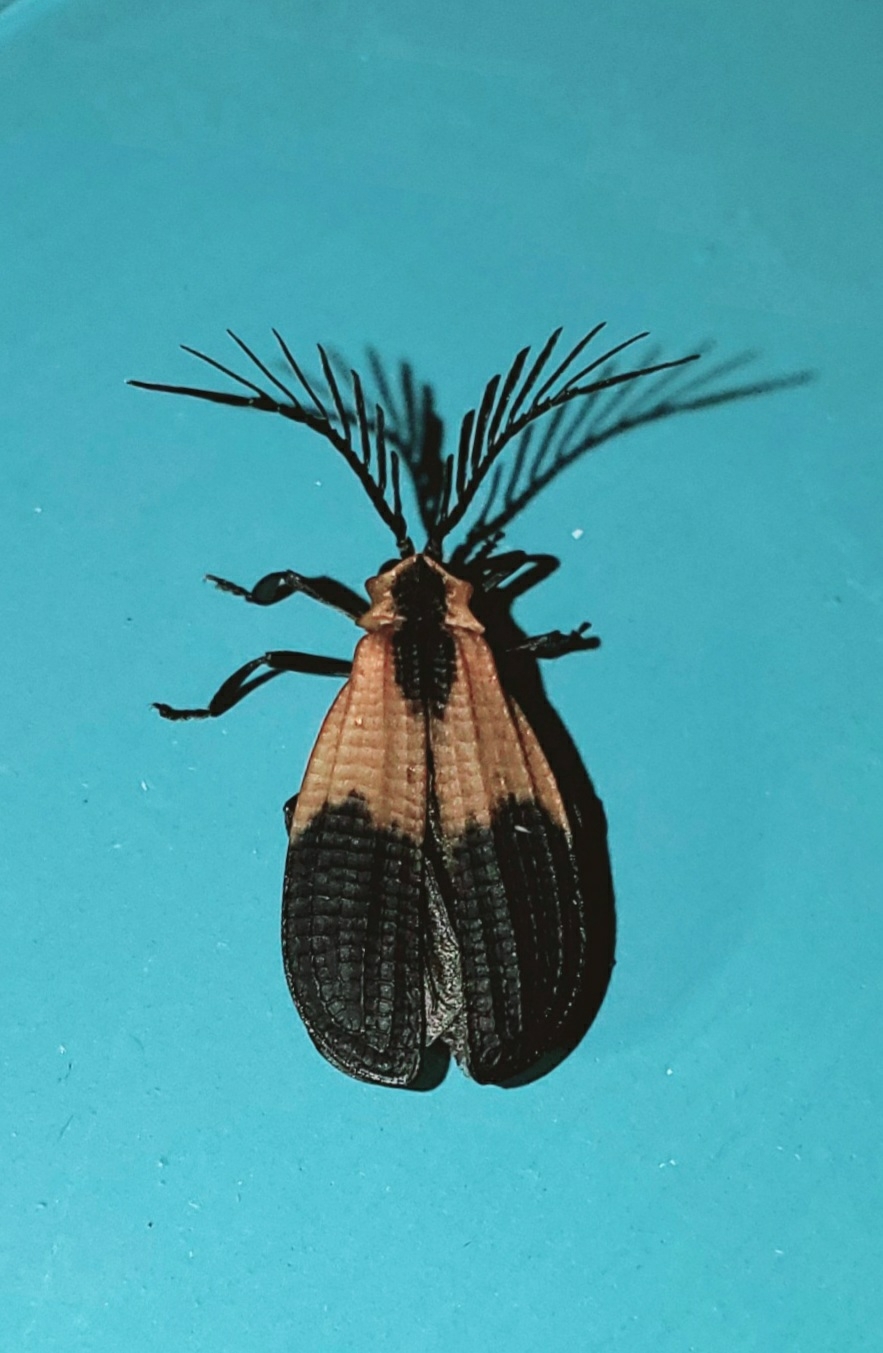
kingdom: Animalia
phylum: Arthropoda
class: Insecta
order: Coleoptera
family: Lycidae
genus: Caenia
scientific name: Caenia dimidiata
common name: Terminal net-winged beetle
